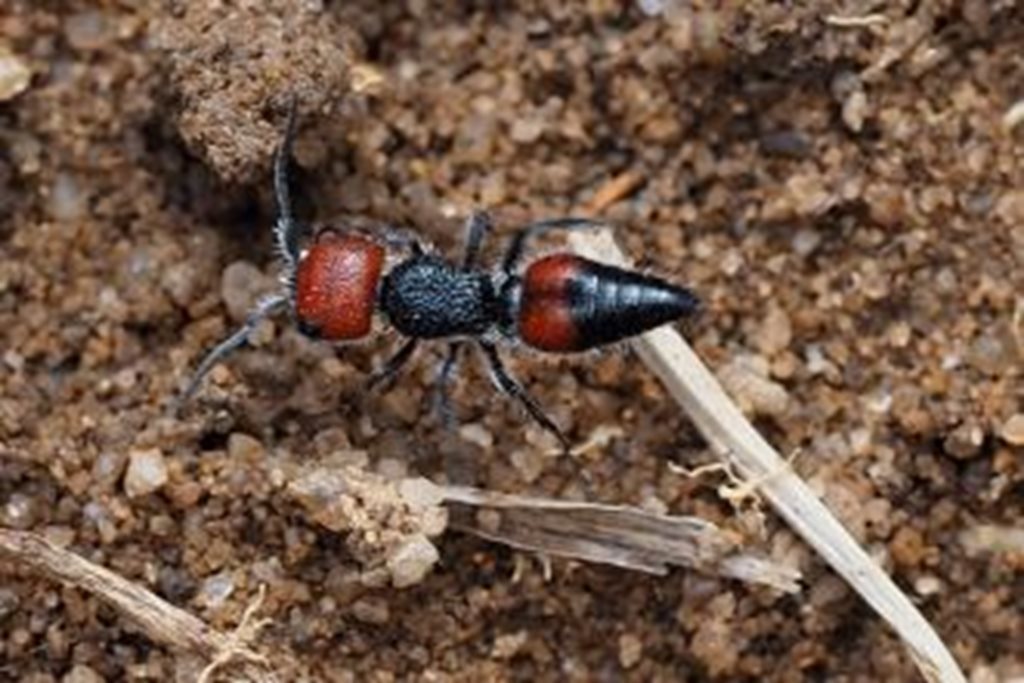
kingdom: Animalia
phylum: Arthropoda
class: Insecta
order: Hymenoptera
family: Mutillidae
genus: Ephutomorpha
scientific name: Ephutomorpha
